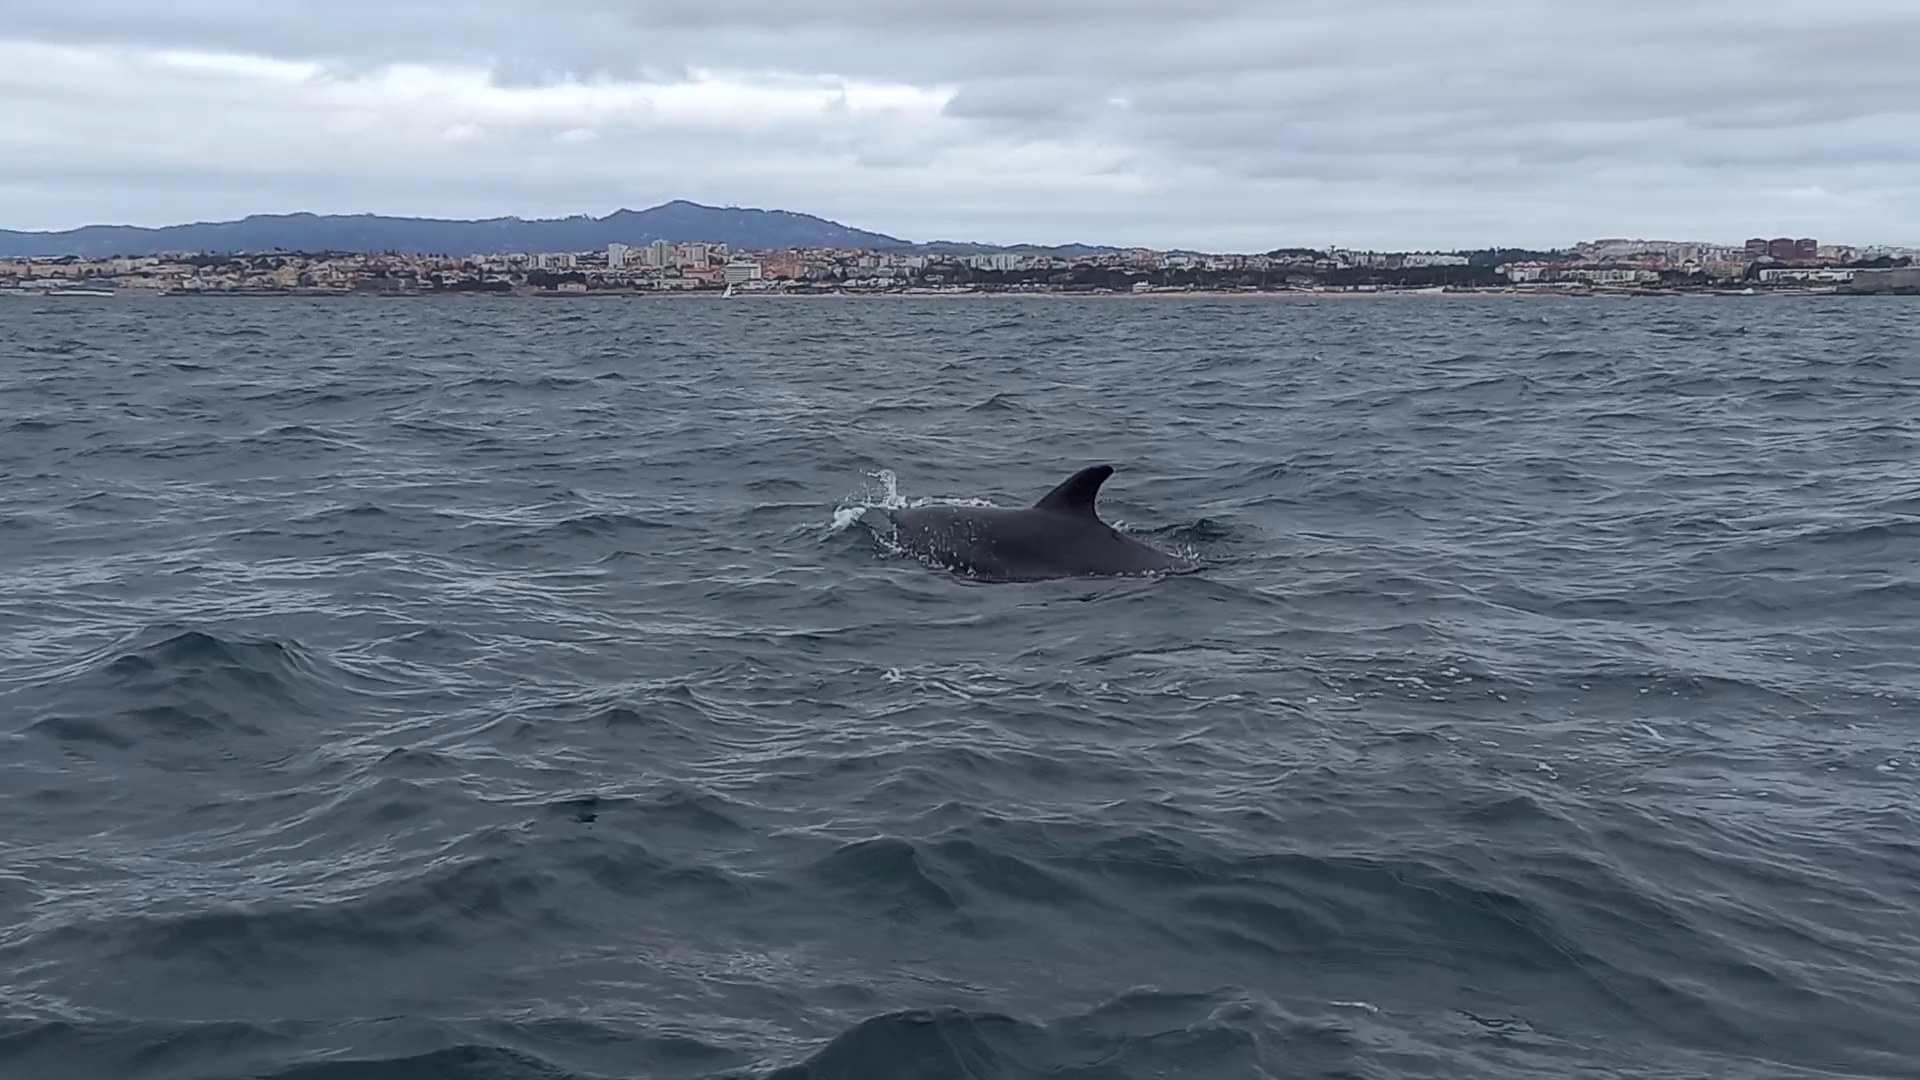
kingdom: Animalia
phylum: Chordata
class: Mammalia
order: Cetacea
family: Delphinidae
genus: Tursiops
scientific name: Tursiops truncatus
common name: Bottlenose dolphin
